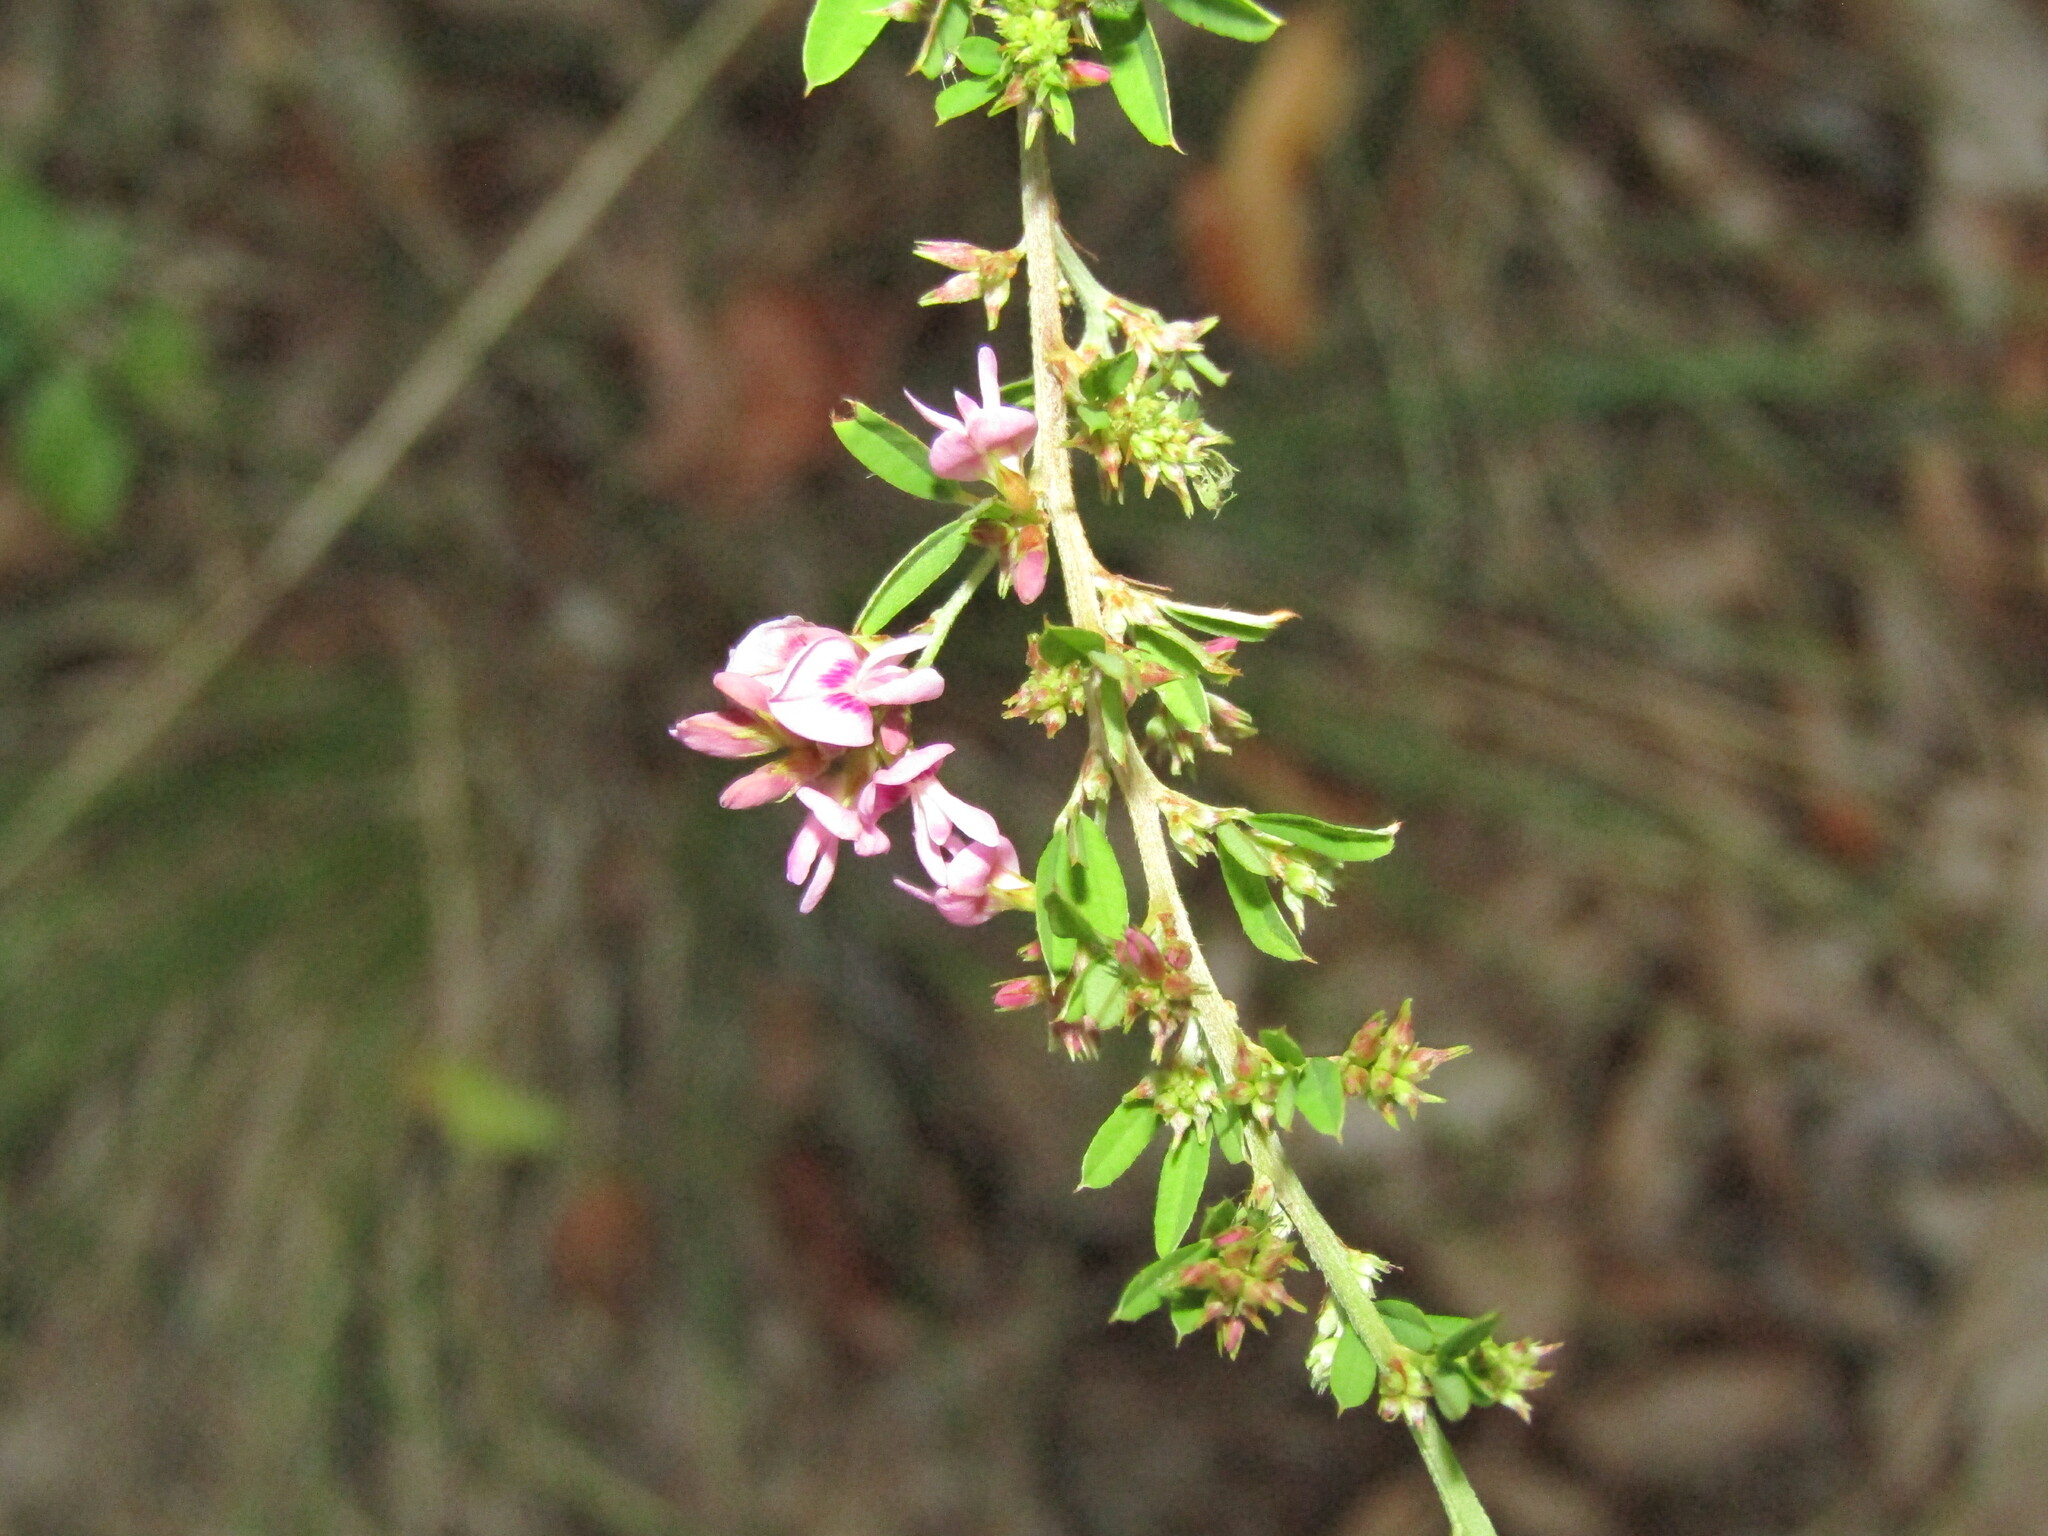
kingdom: Plantae
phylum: Tracheophyta
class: Magnoliopsida
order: Fabales
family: Fabaceae
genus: Lespedeza
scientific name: Lespedeza virginica
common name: Slender bush-clover
